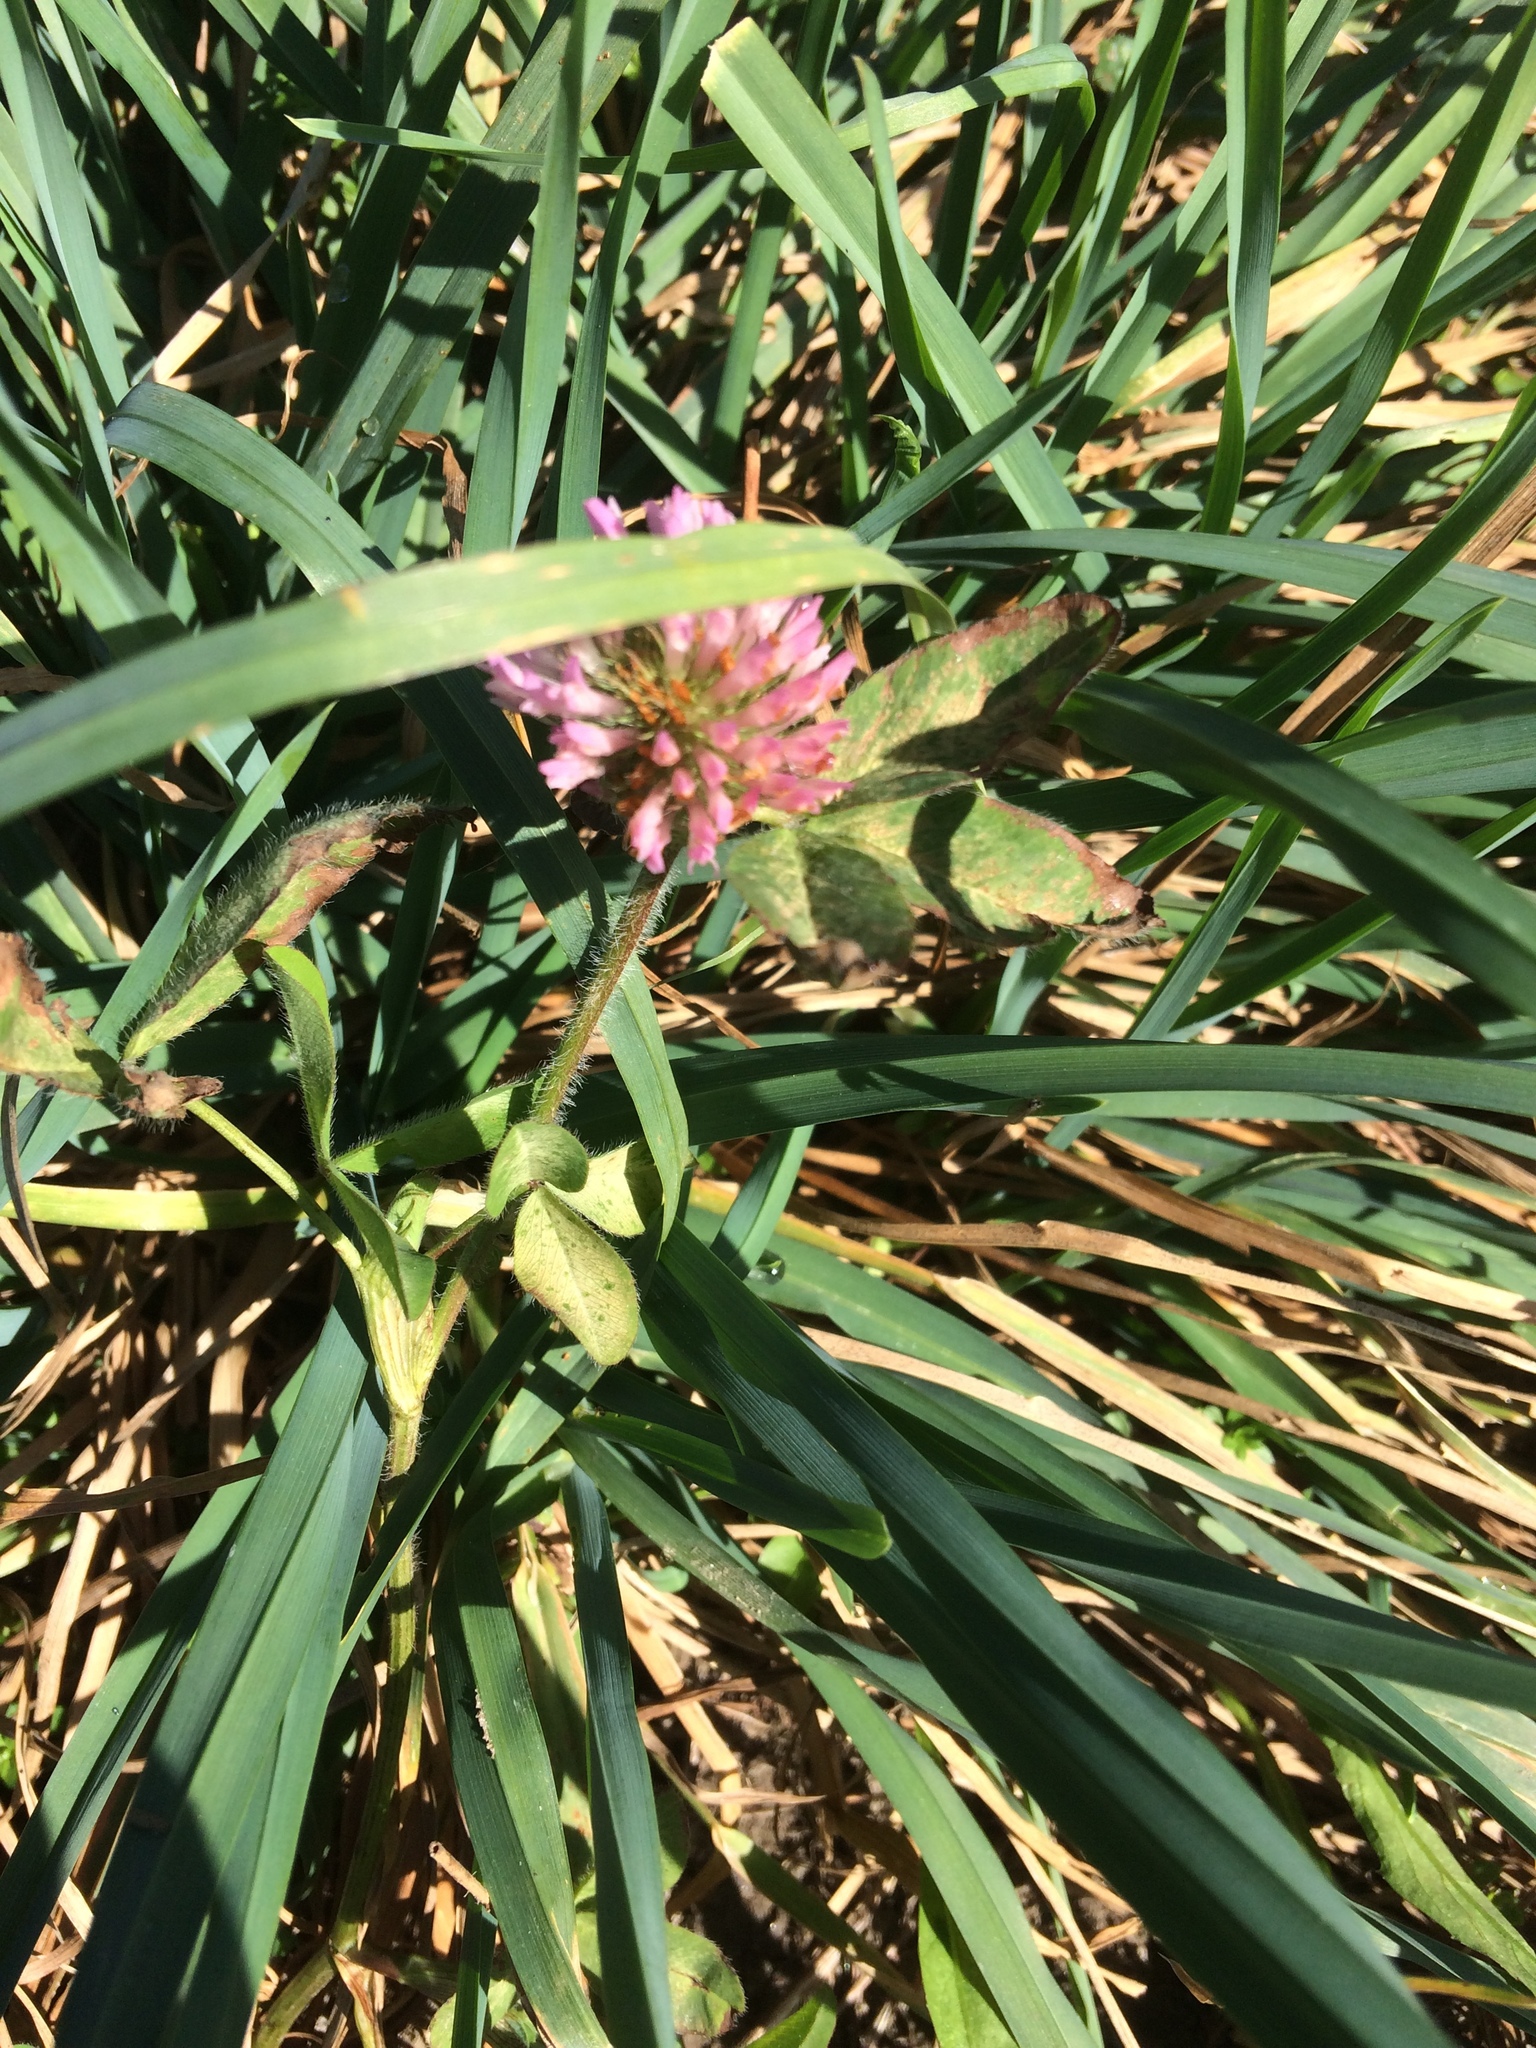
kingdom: Plantae
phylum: Tracheophyta
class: Magnoliopsida
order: Fabales
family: Fabaceae
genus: Trifolium
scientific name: Trifolium pratense
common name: Red clover
